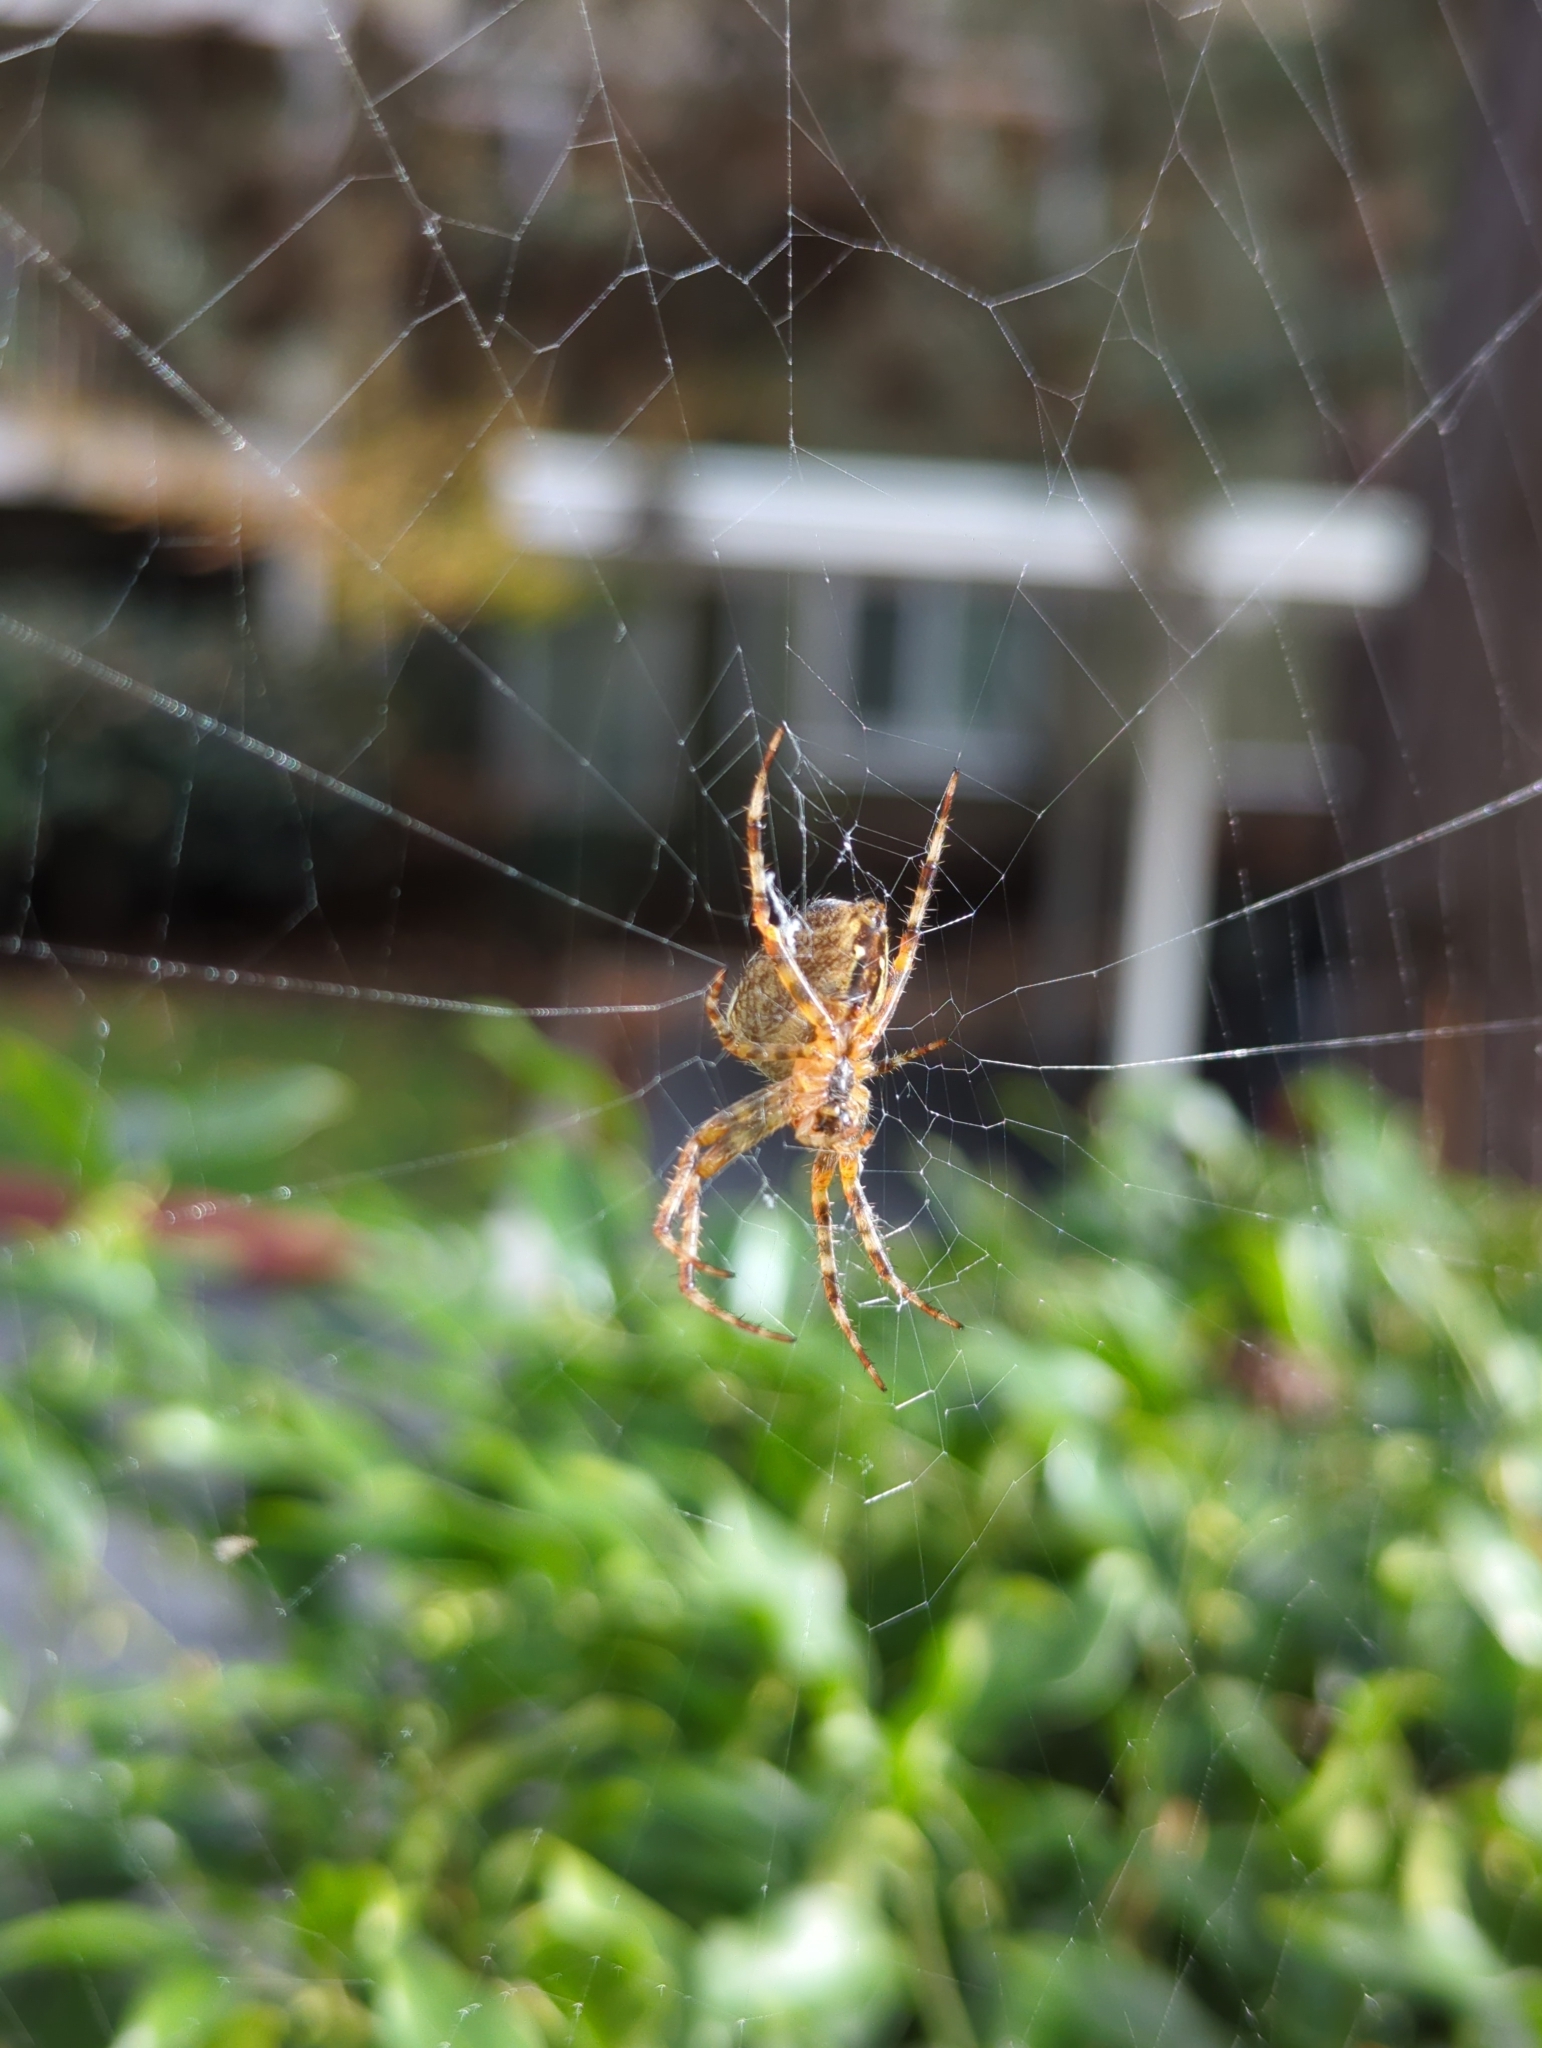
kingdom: Animalia
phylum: Arthropoda
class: Arachnida
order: Araneae
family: Araneidae
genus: Araneus
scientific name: Araneus diadematus
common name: Cross orbweaver
